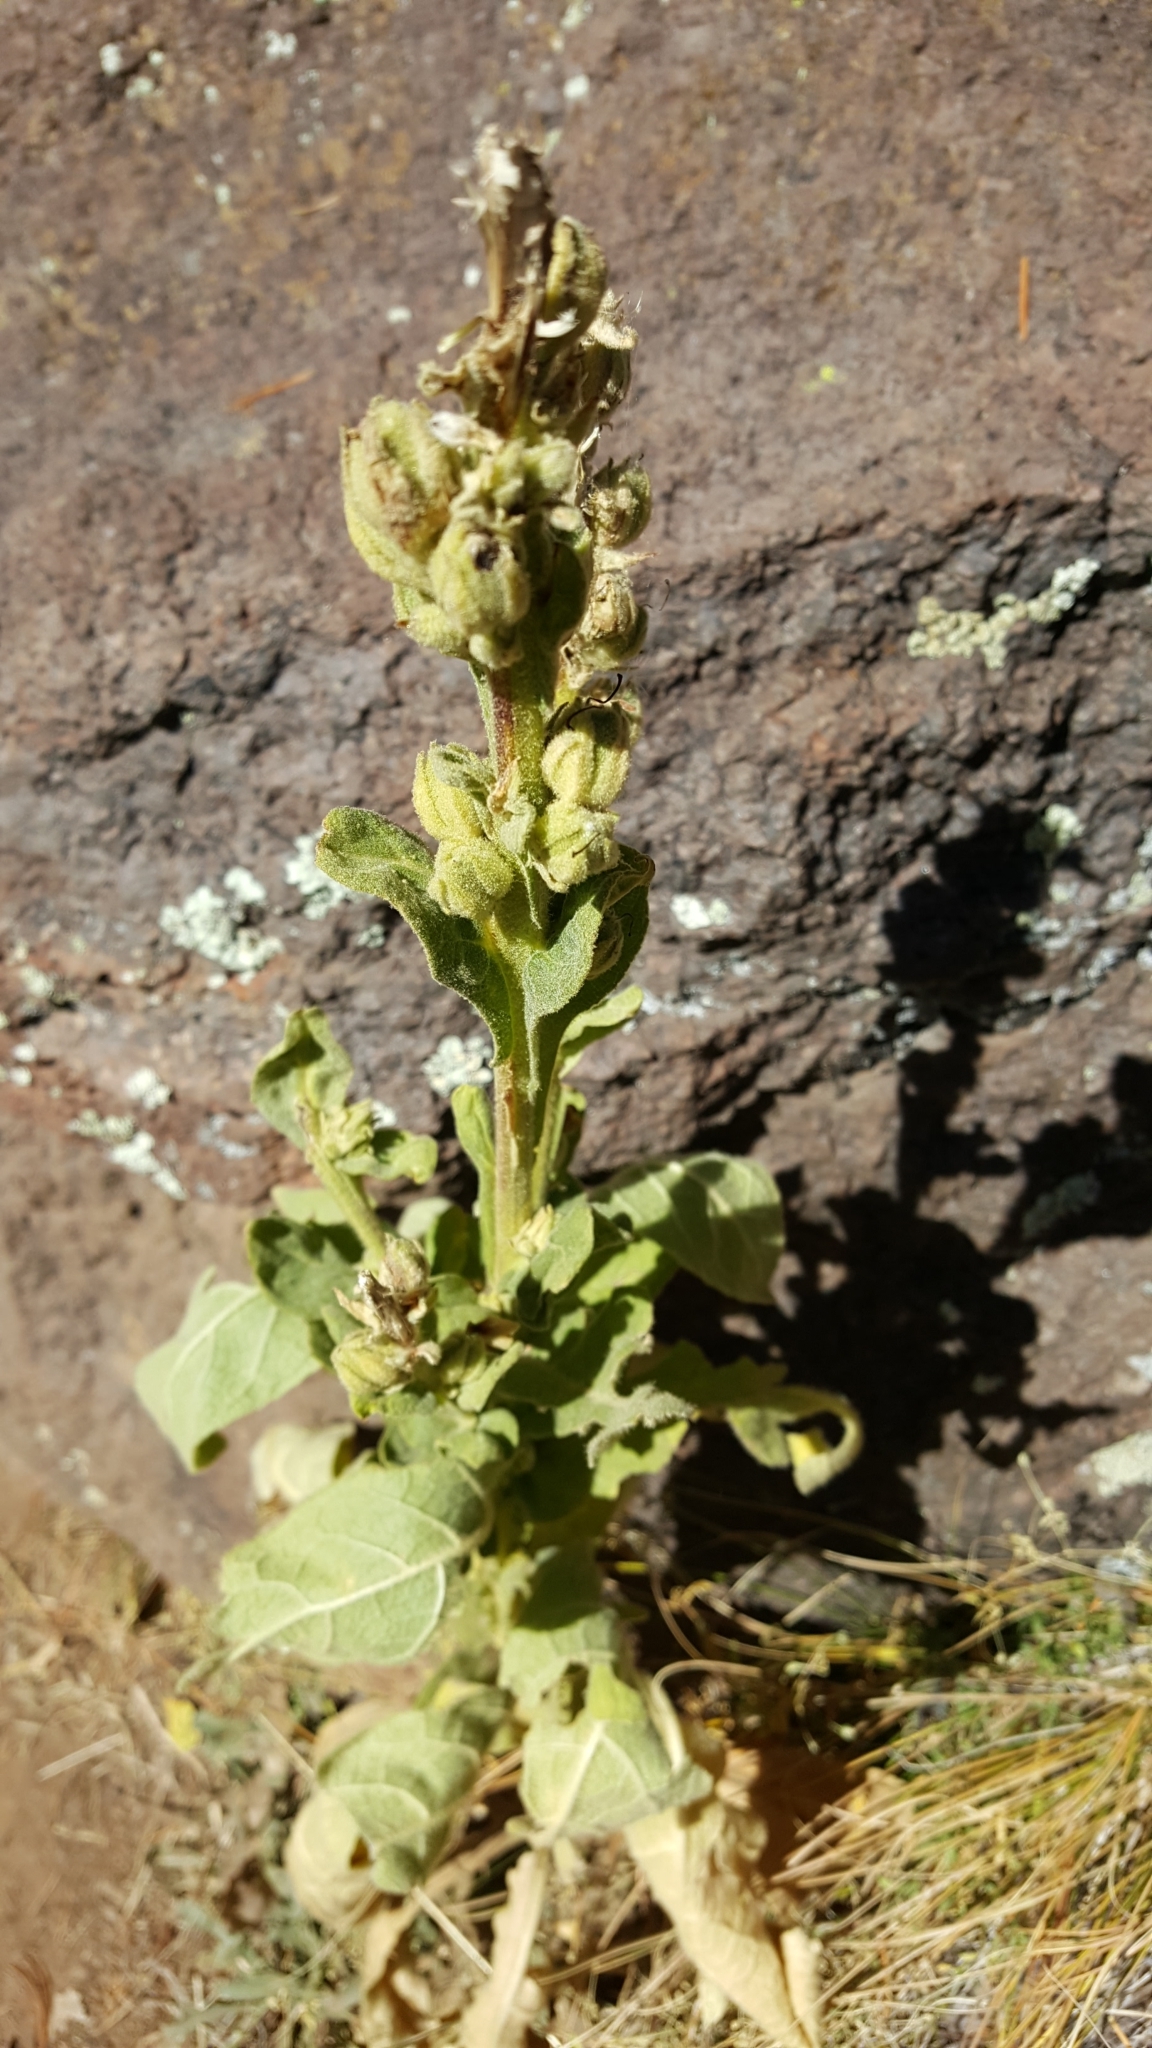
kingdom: Plantae
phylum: Tracheophyta
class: Magnoliopsida
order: Lamiales
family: Scrophulariaceae
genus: Verbascum
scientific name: Verbascum thapsus
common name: Common mullein
